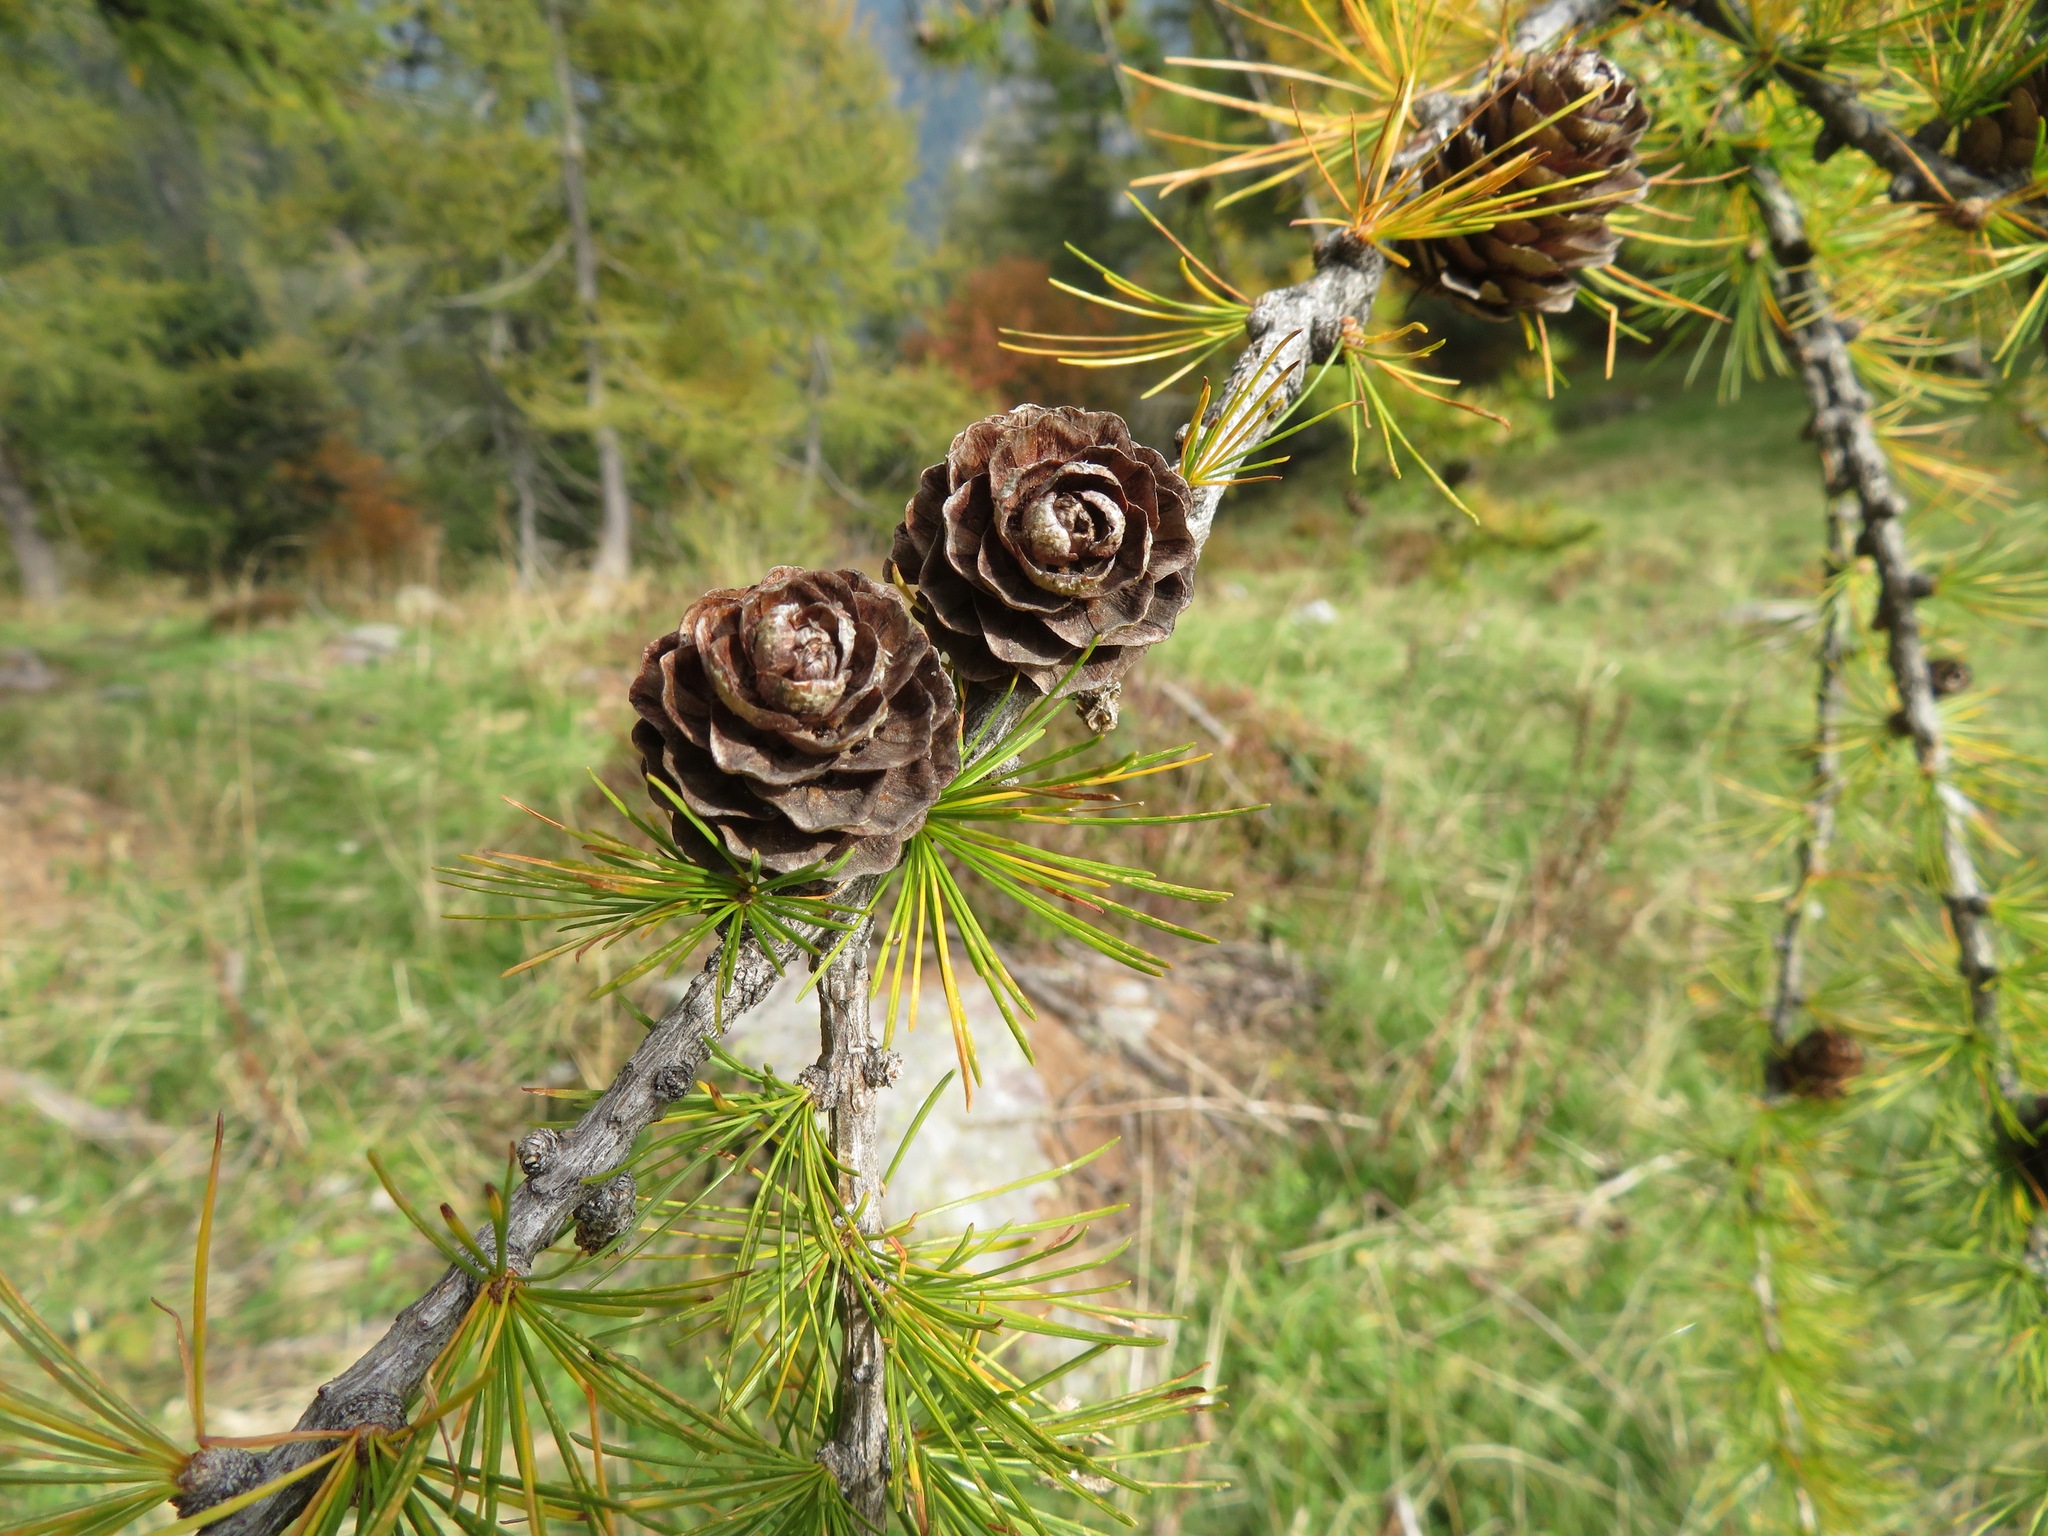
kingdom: Plantae
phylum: Tracheophyta
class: Pinopsida
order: Pinales
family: Pinaceae
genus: Larix
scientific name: Larix decidua
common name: European larch
